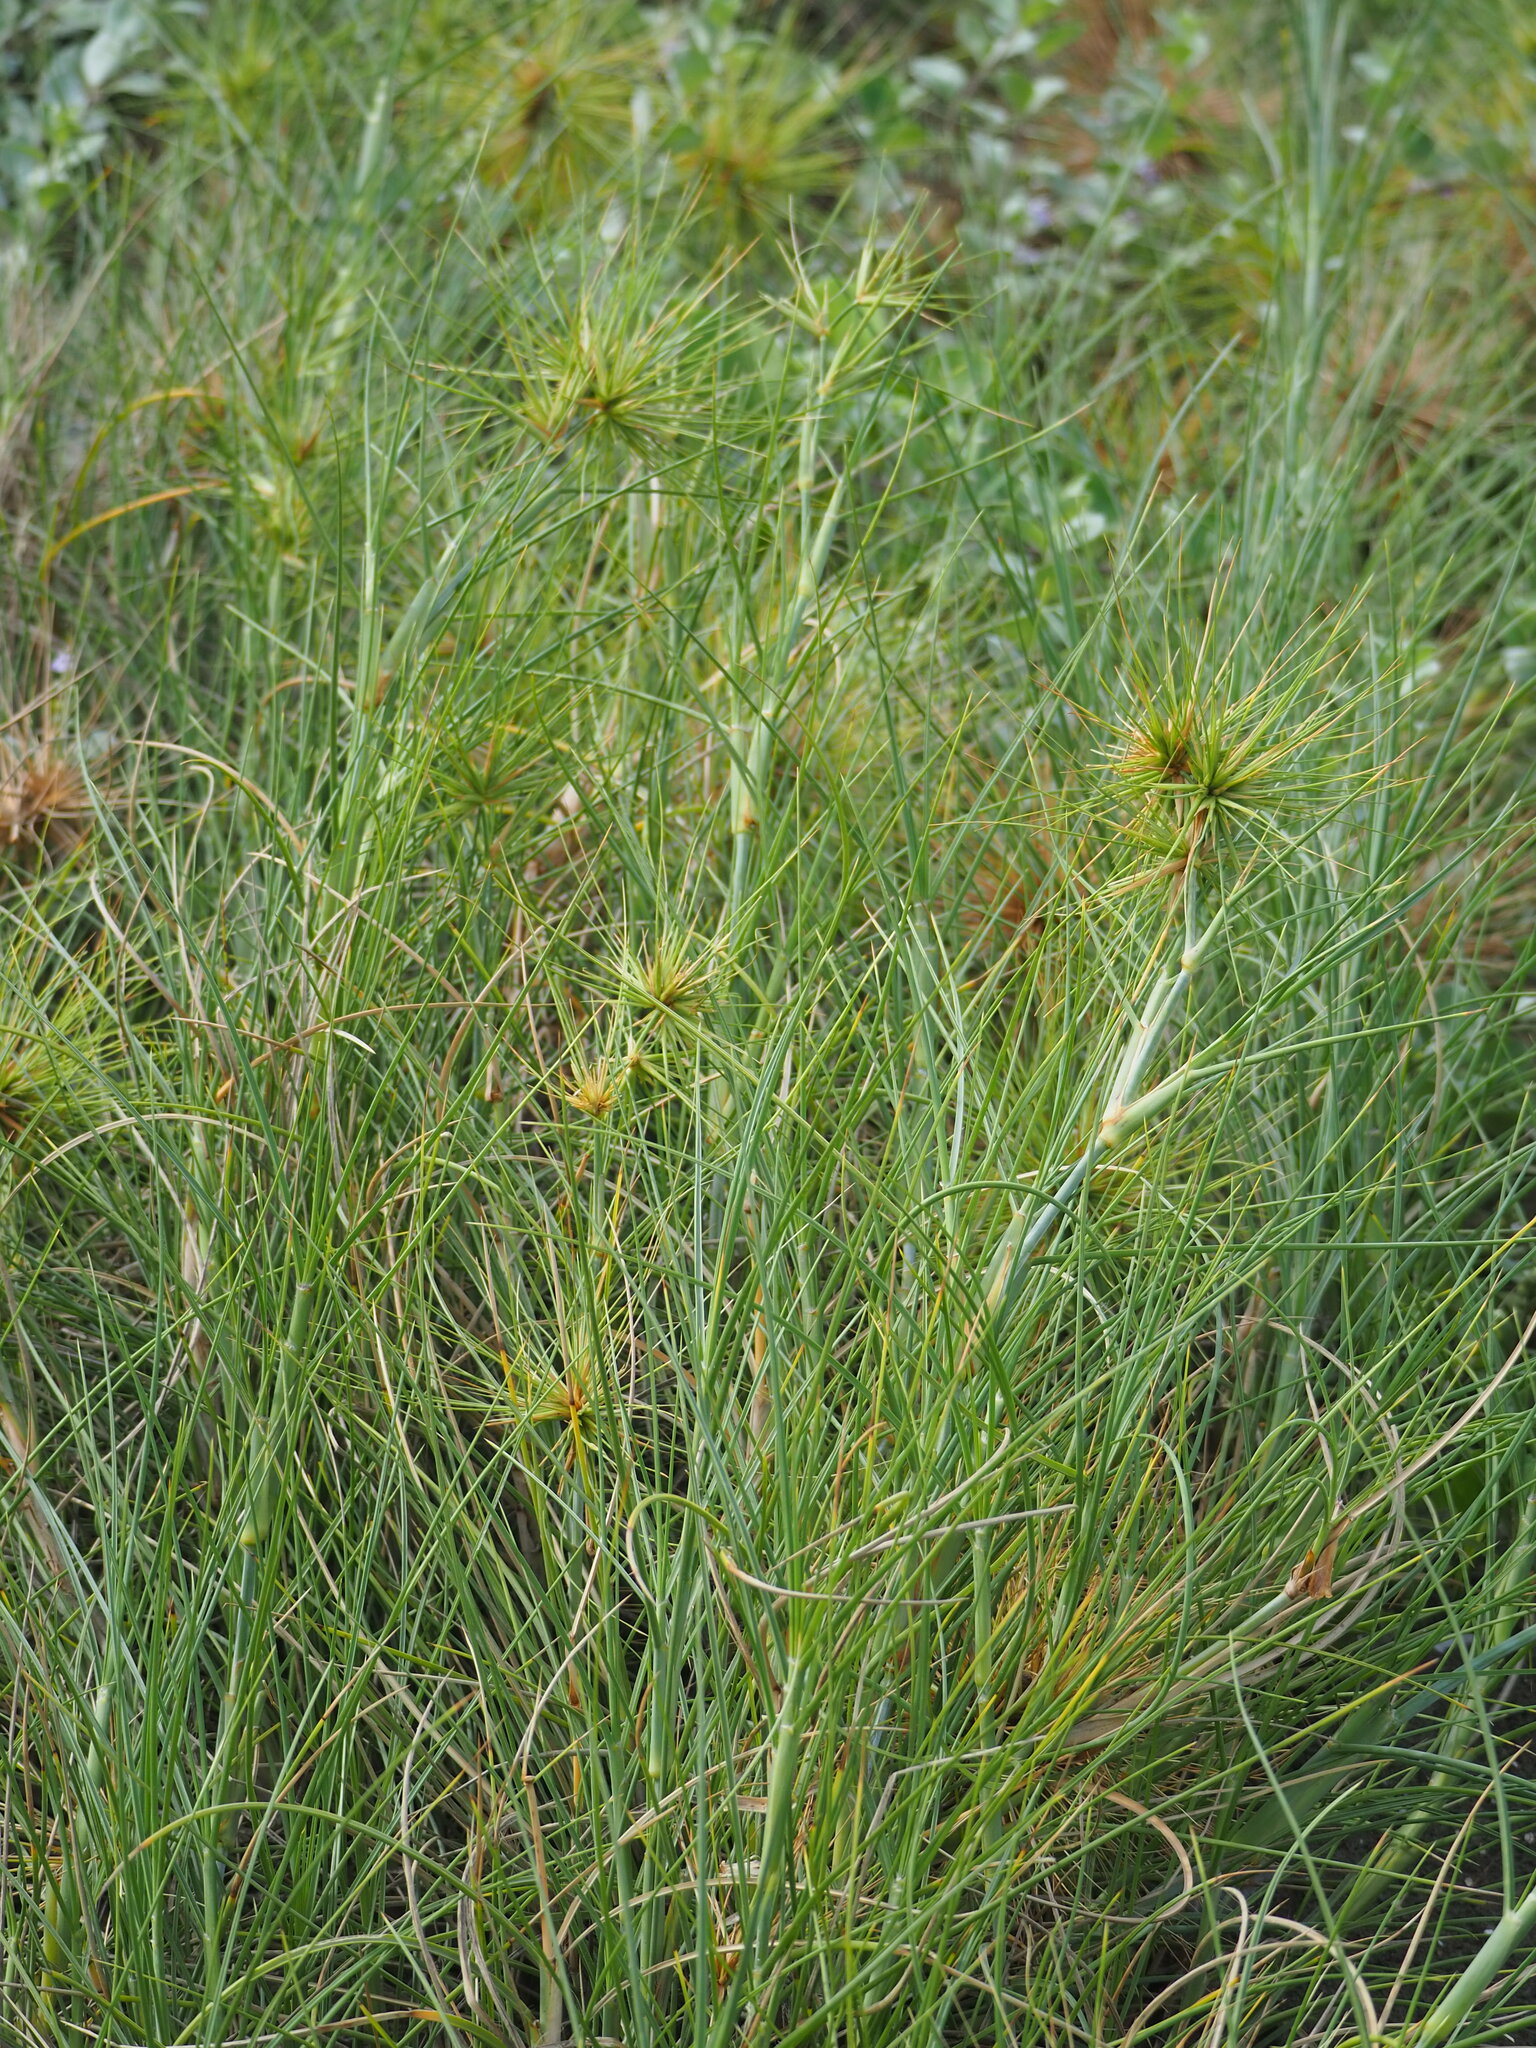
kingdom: Plantae
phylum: Tracheophyta
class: Liliopsida
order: Poales
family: Poaceae
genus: Spinifex
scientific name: Spinifex littoreus
